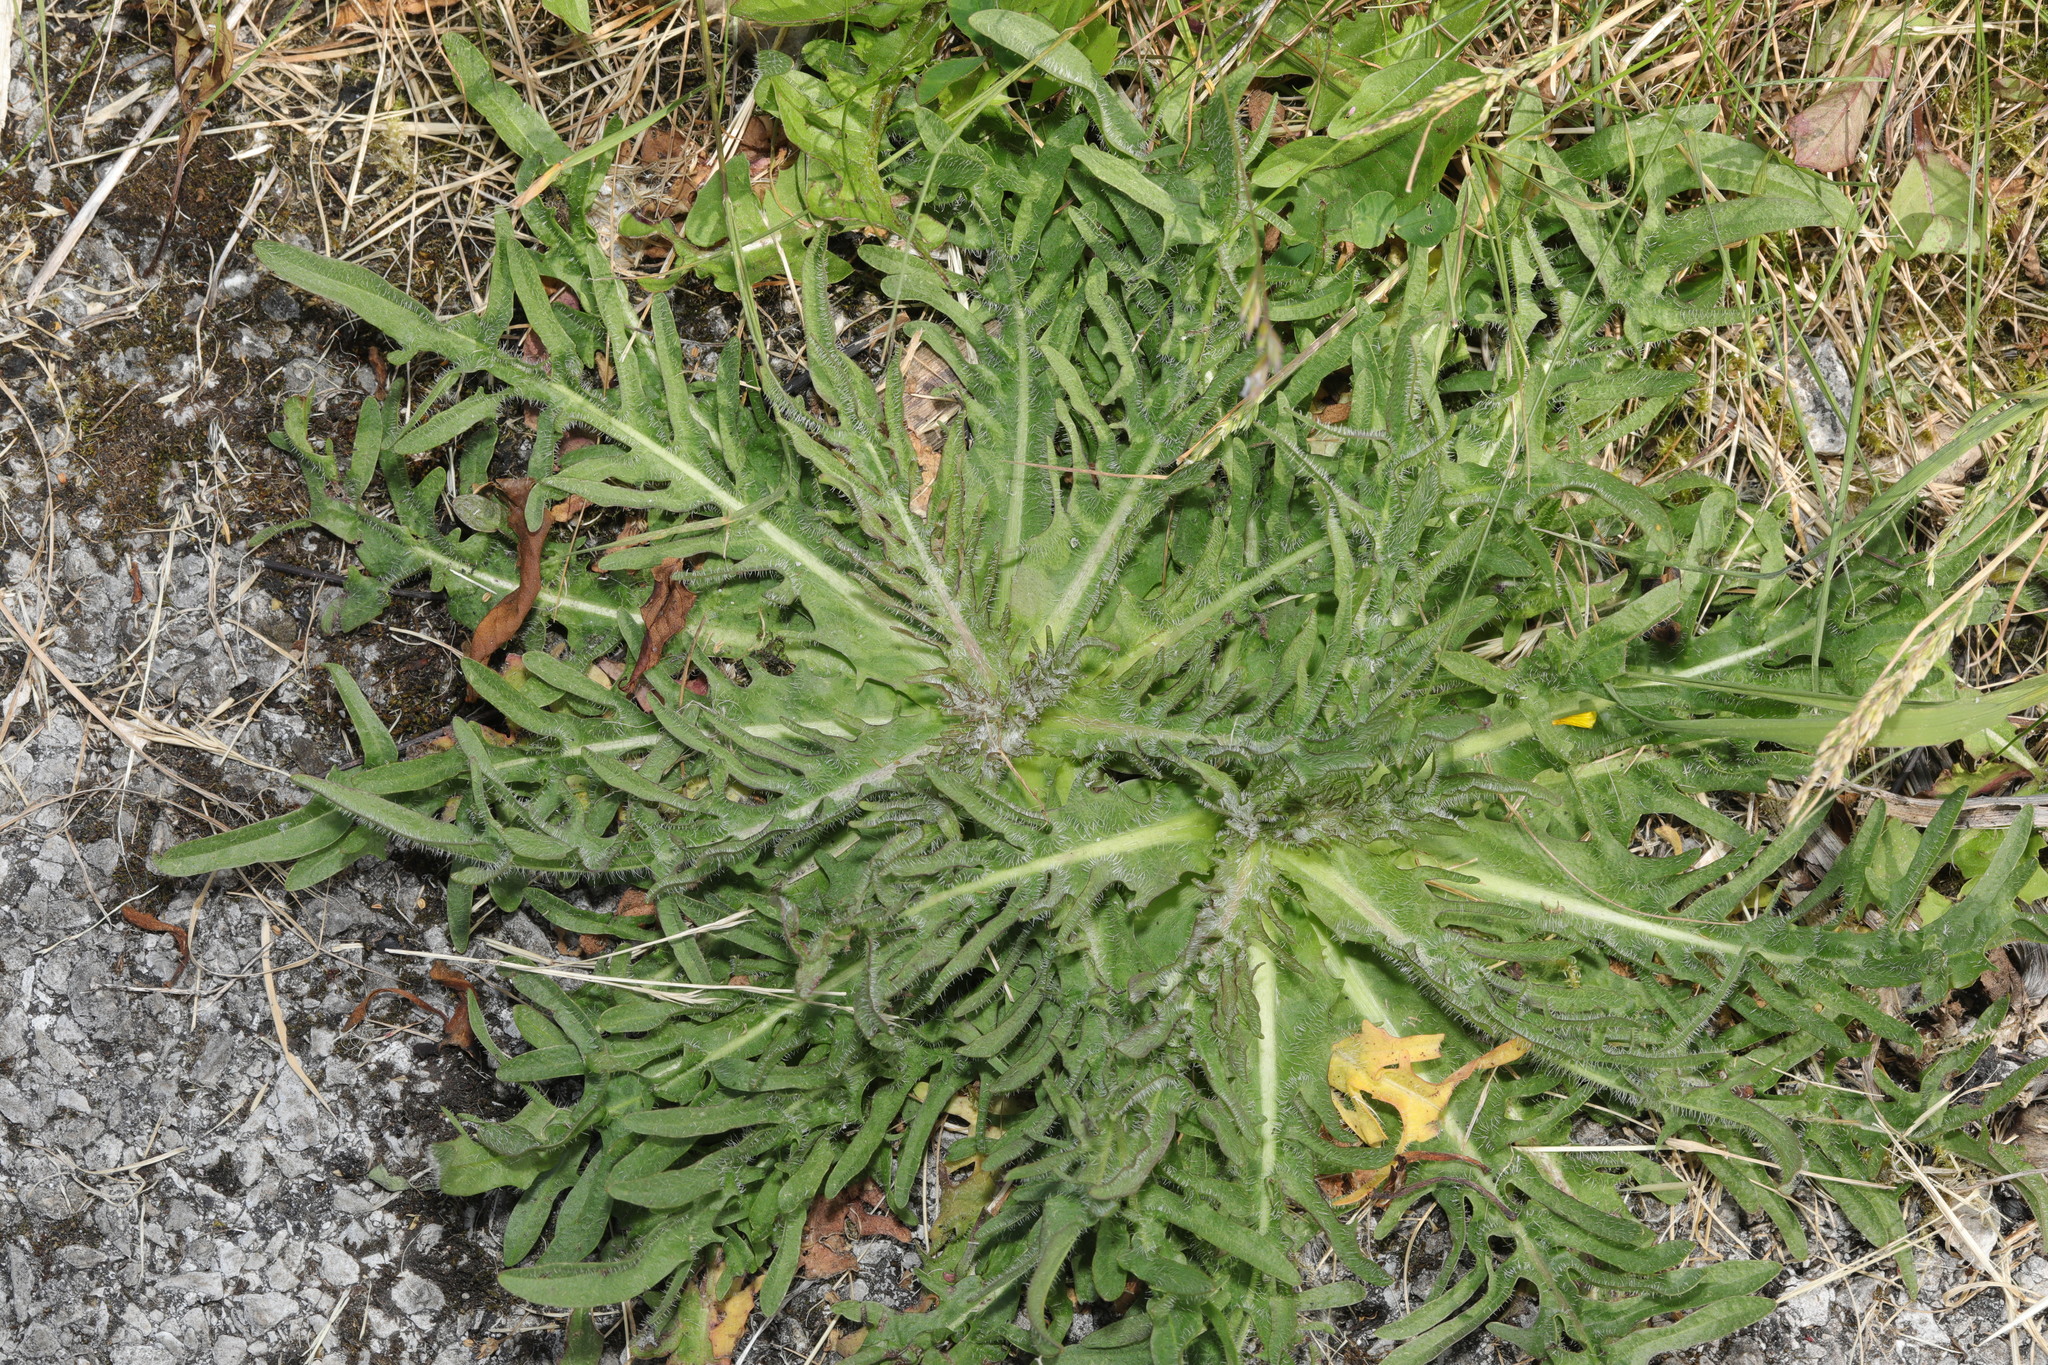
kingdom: Plantae
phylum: Tracheophyta
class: Magnoliopsida
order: Asterales
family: Asteraceae
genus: Scorzoneroides
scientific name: Scorzoneroides autumnalis
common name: Autumn hawkbit
